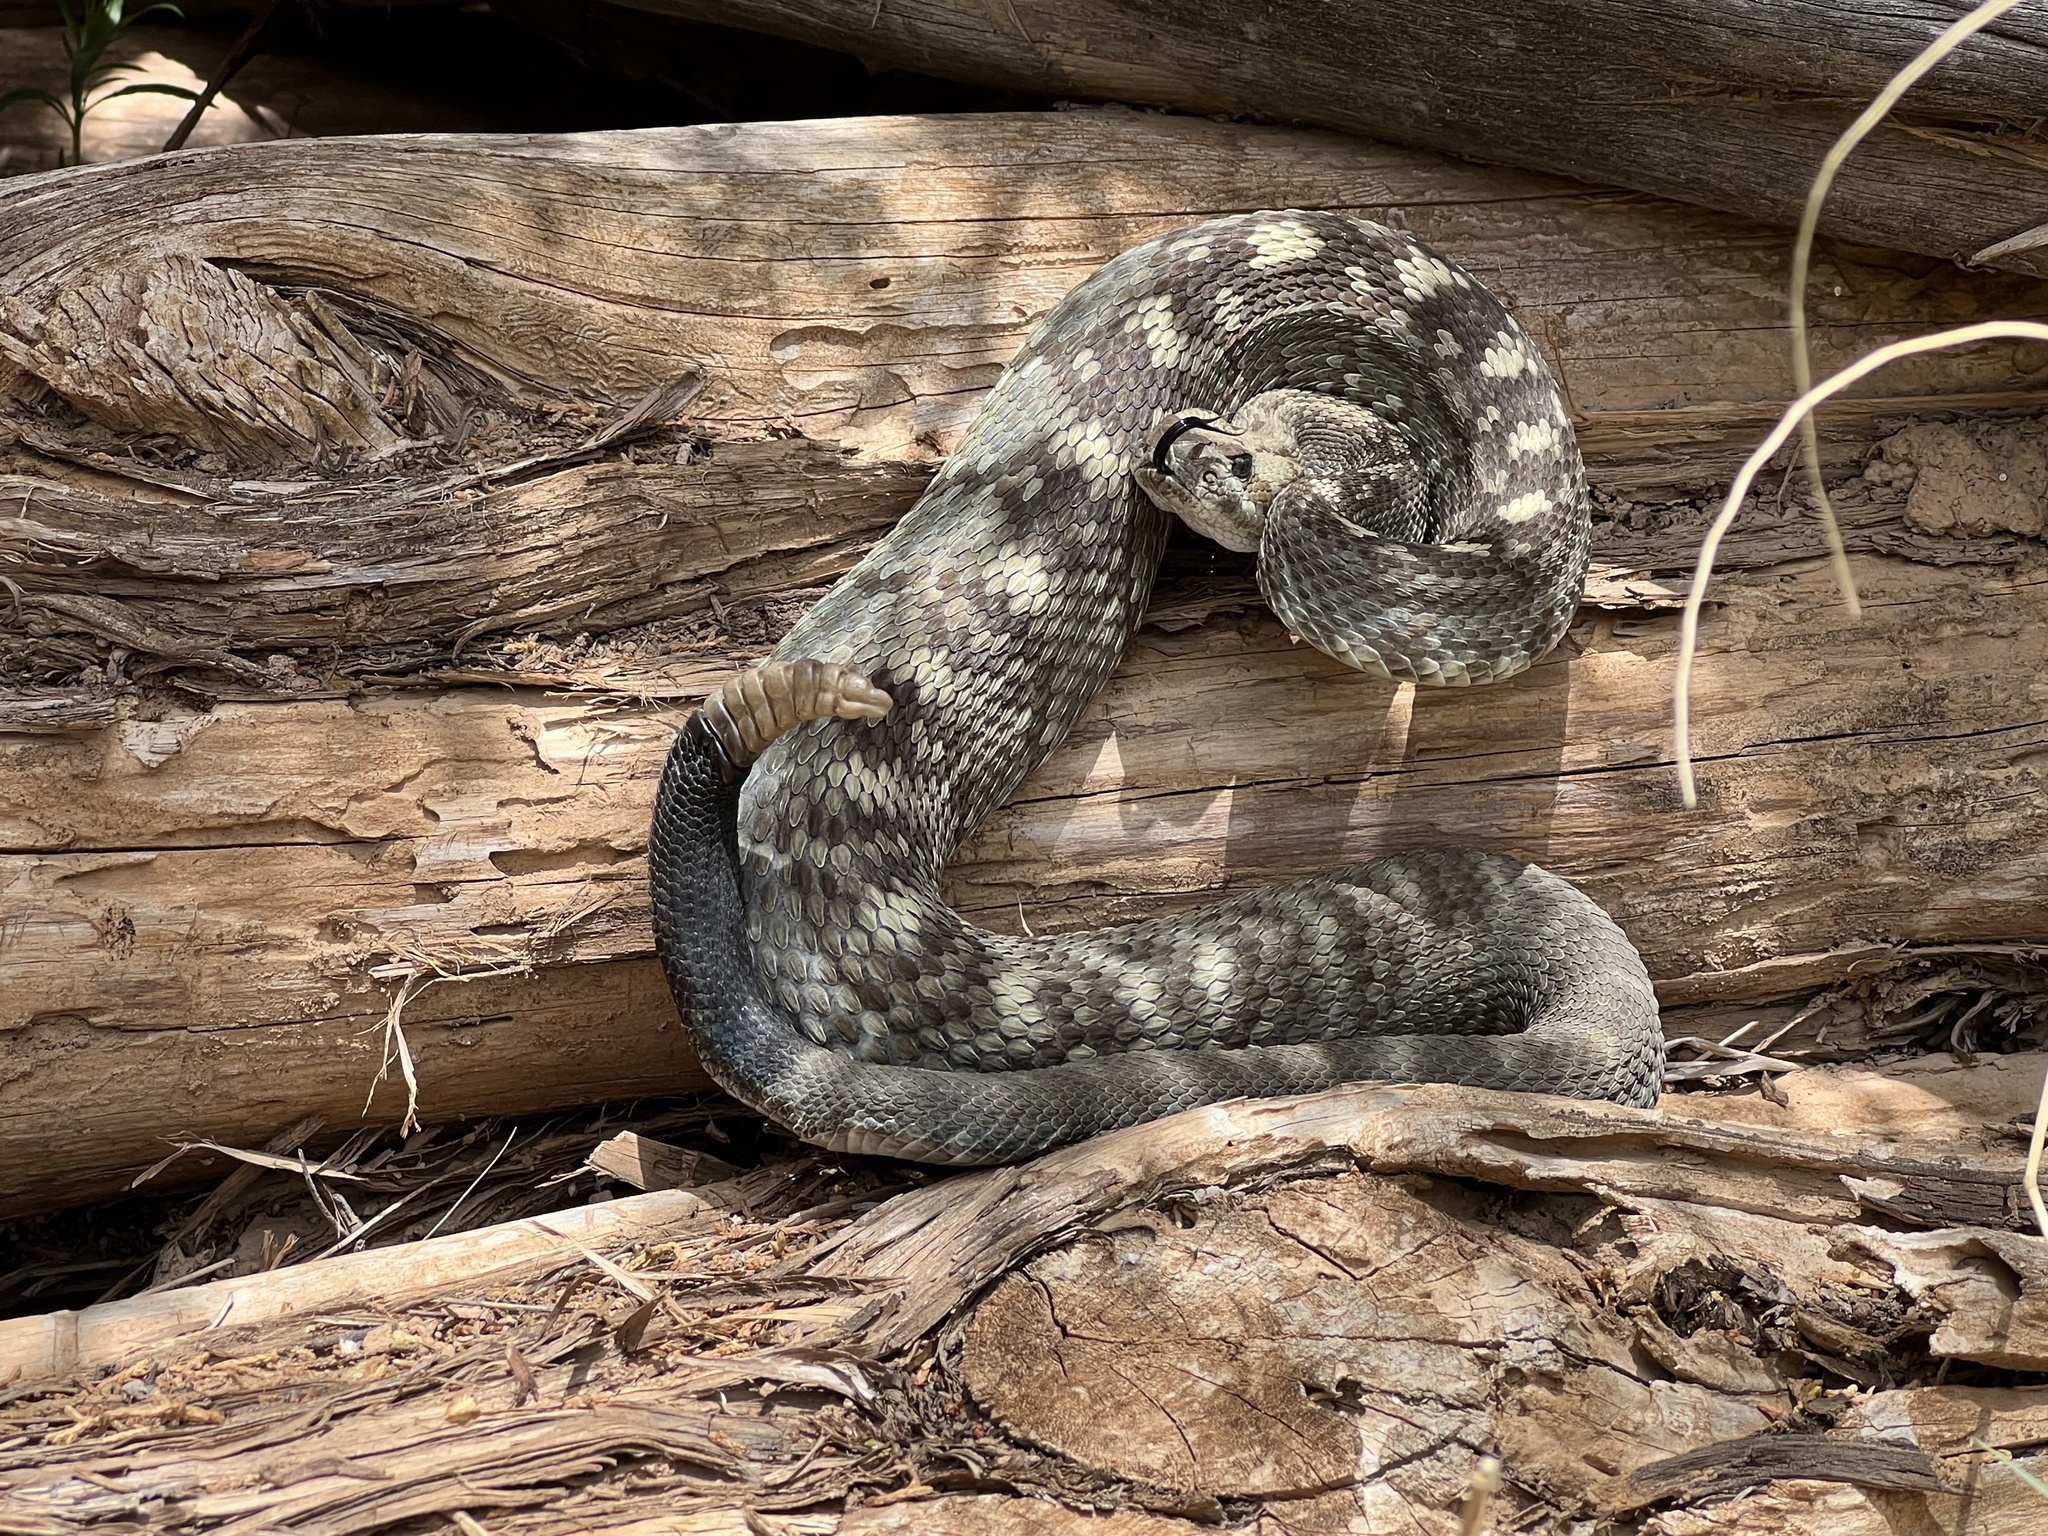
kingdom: Animalia
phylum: Chordata
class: Squamata
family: Viperidae
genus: Crotalus
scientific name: Crotalus ornatus
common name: Black-tailed rattlesnake
